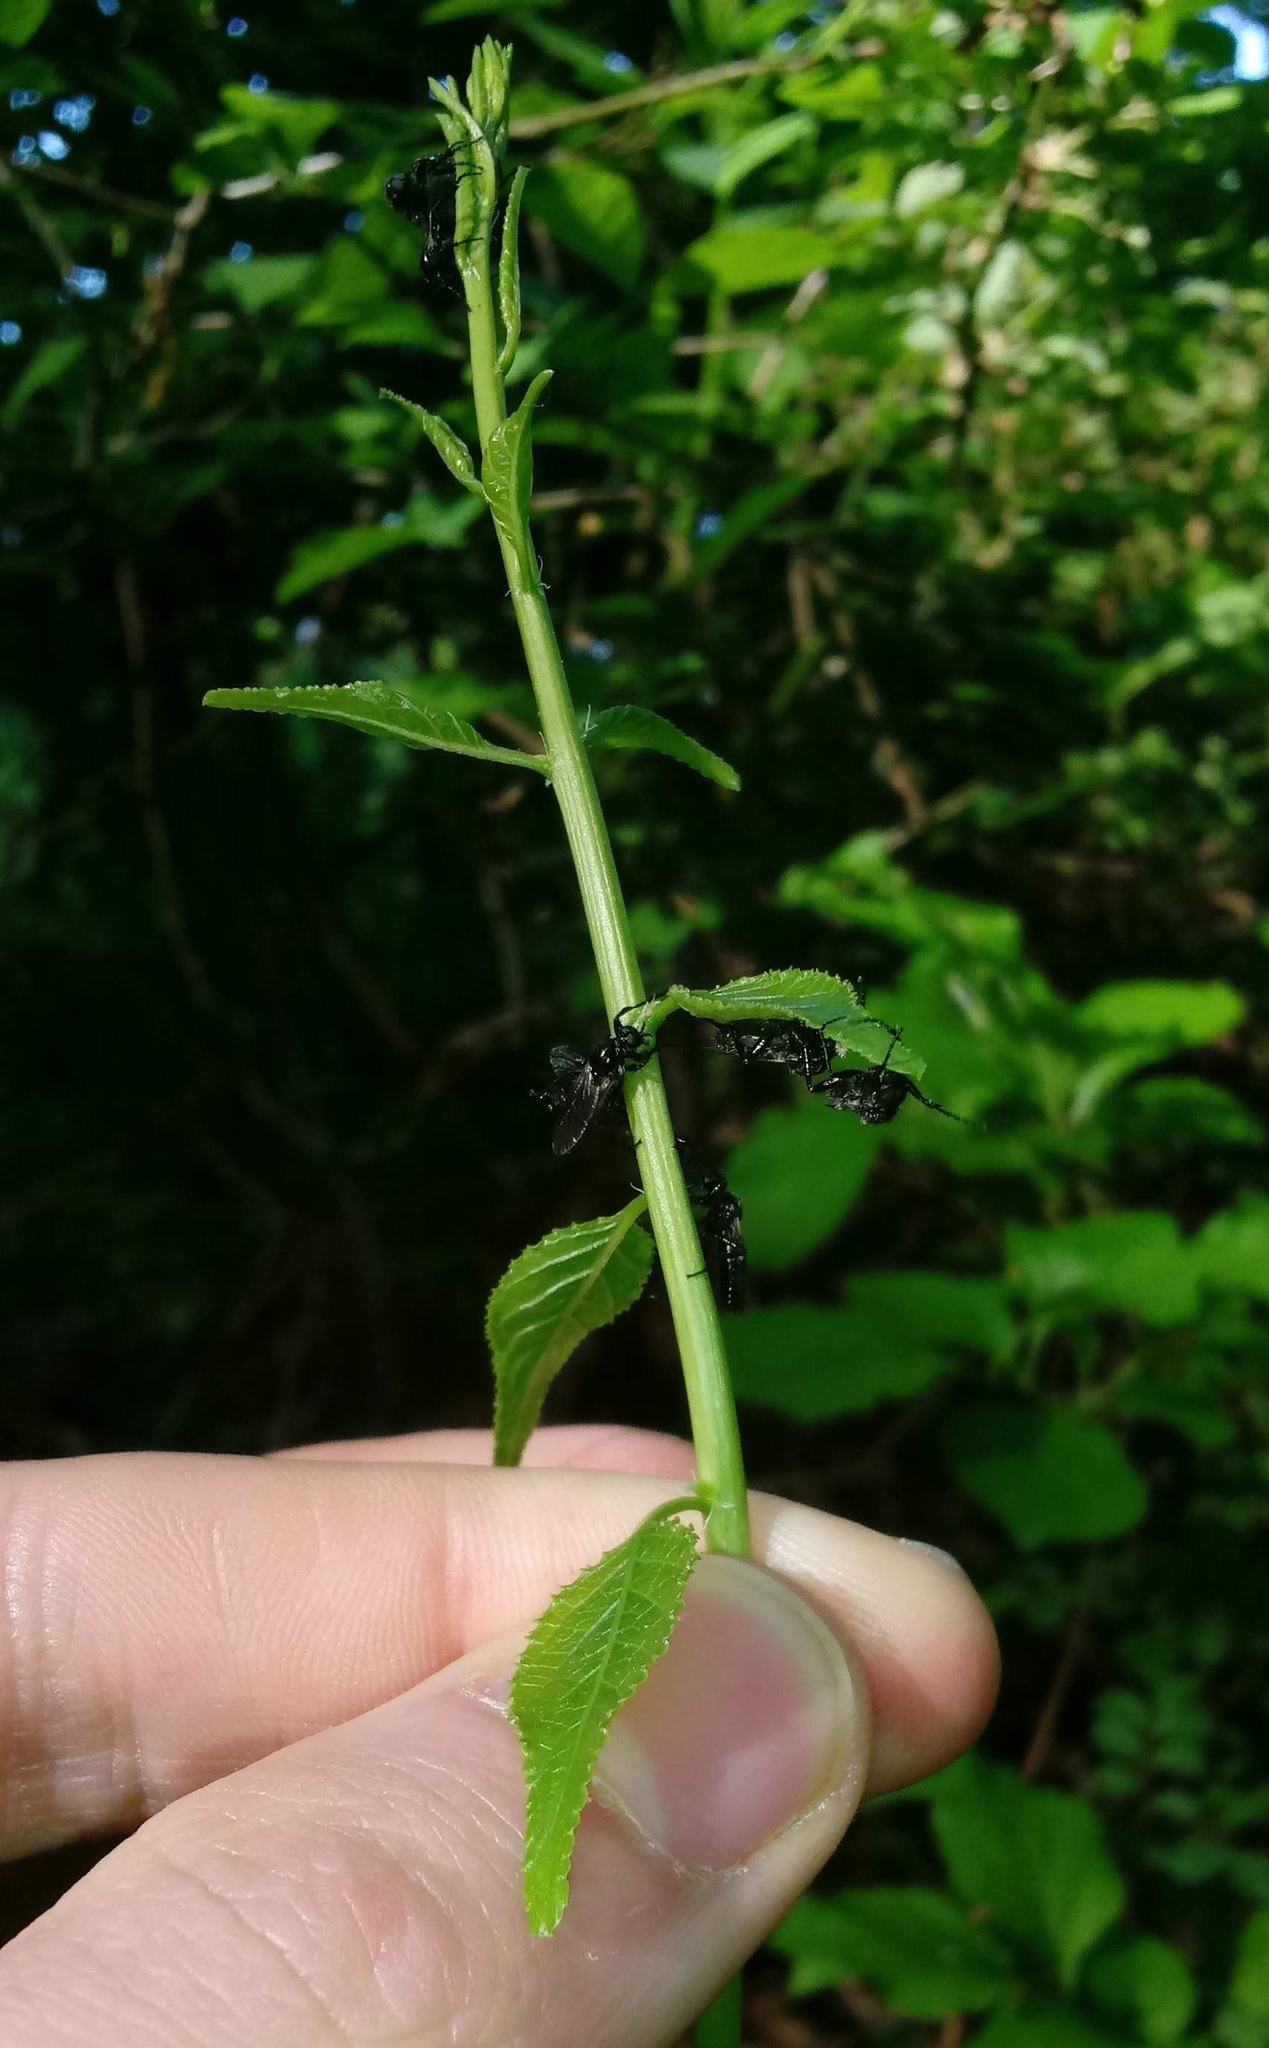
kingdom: Animalia
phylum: Arthropoda
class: Insecta
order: Diptera
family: Bibionidae
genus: Bibio
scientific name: Bibio albipennis
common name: White-winged march fly
